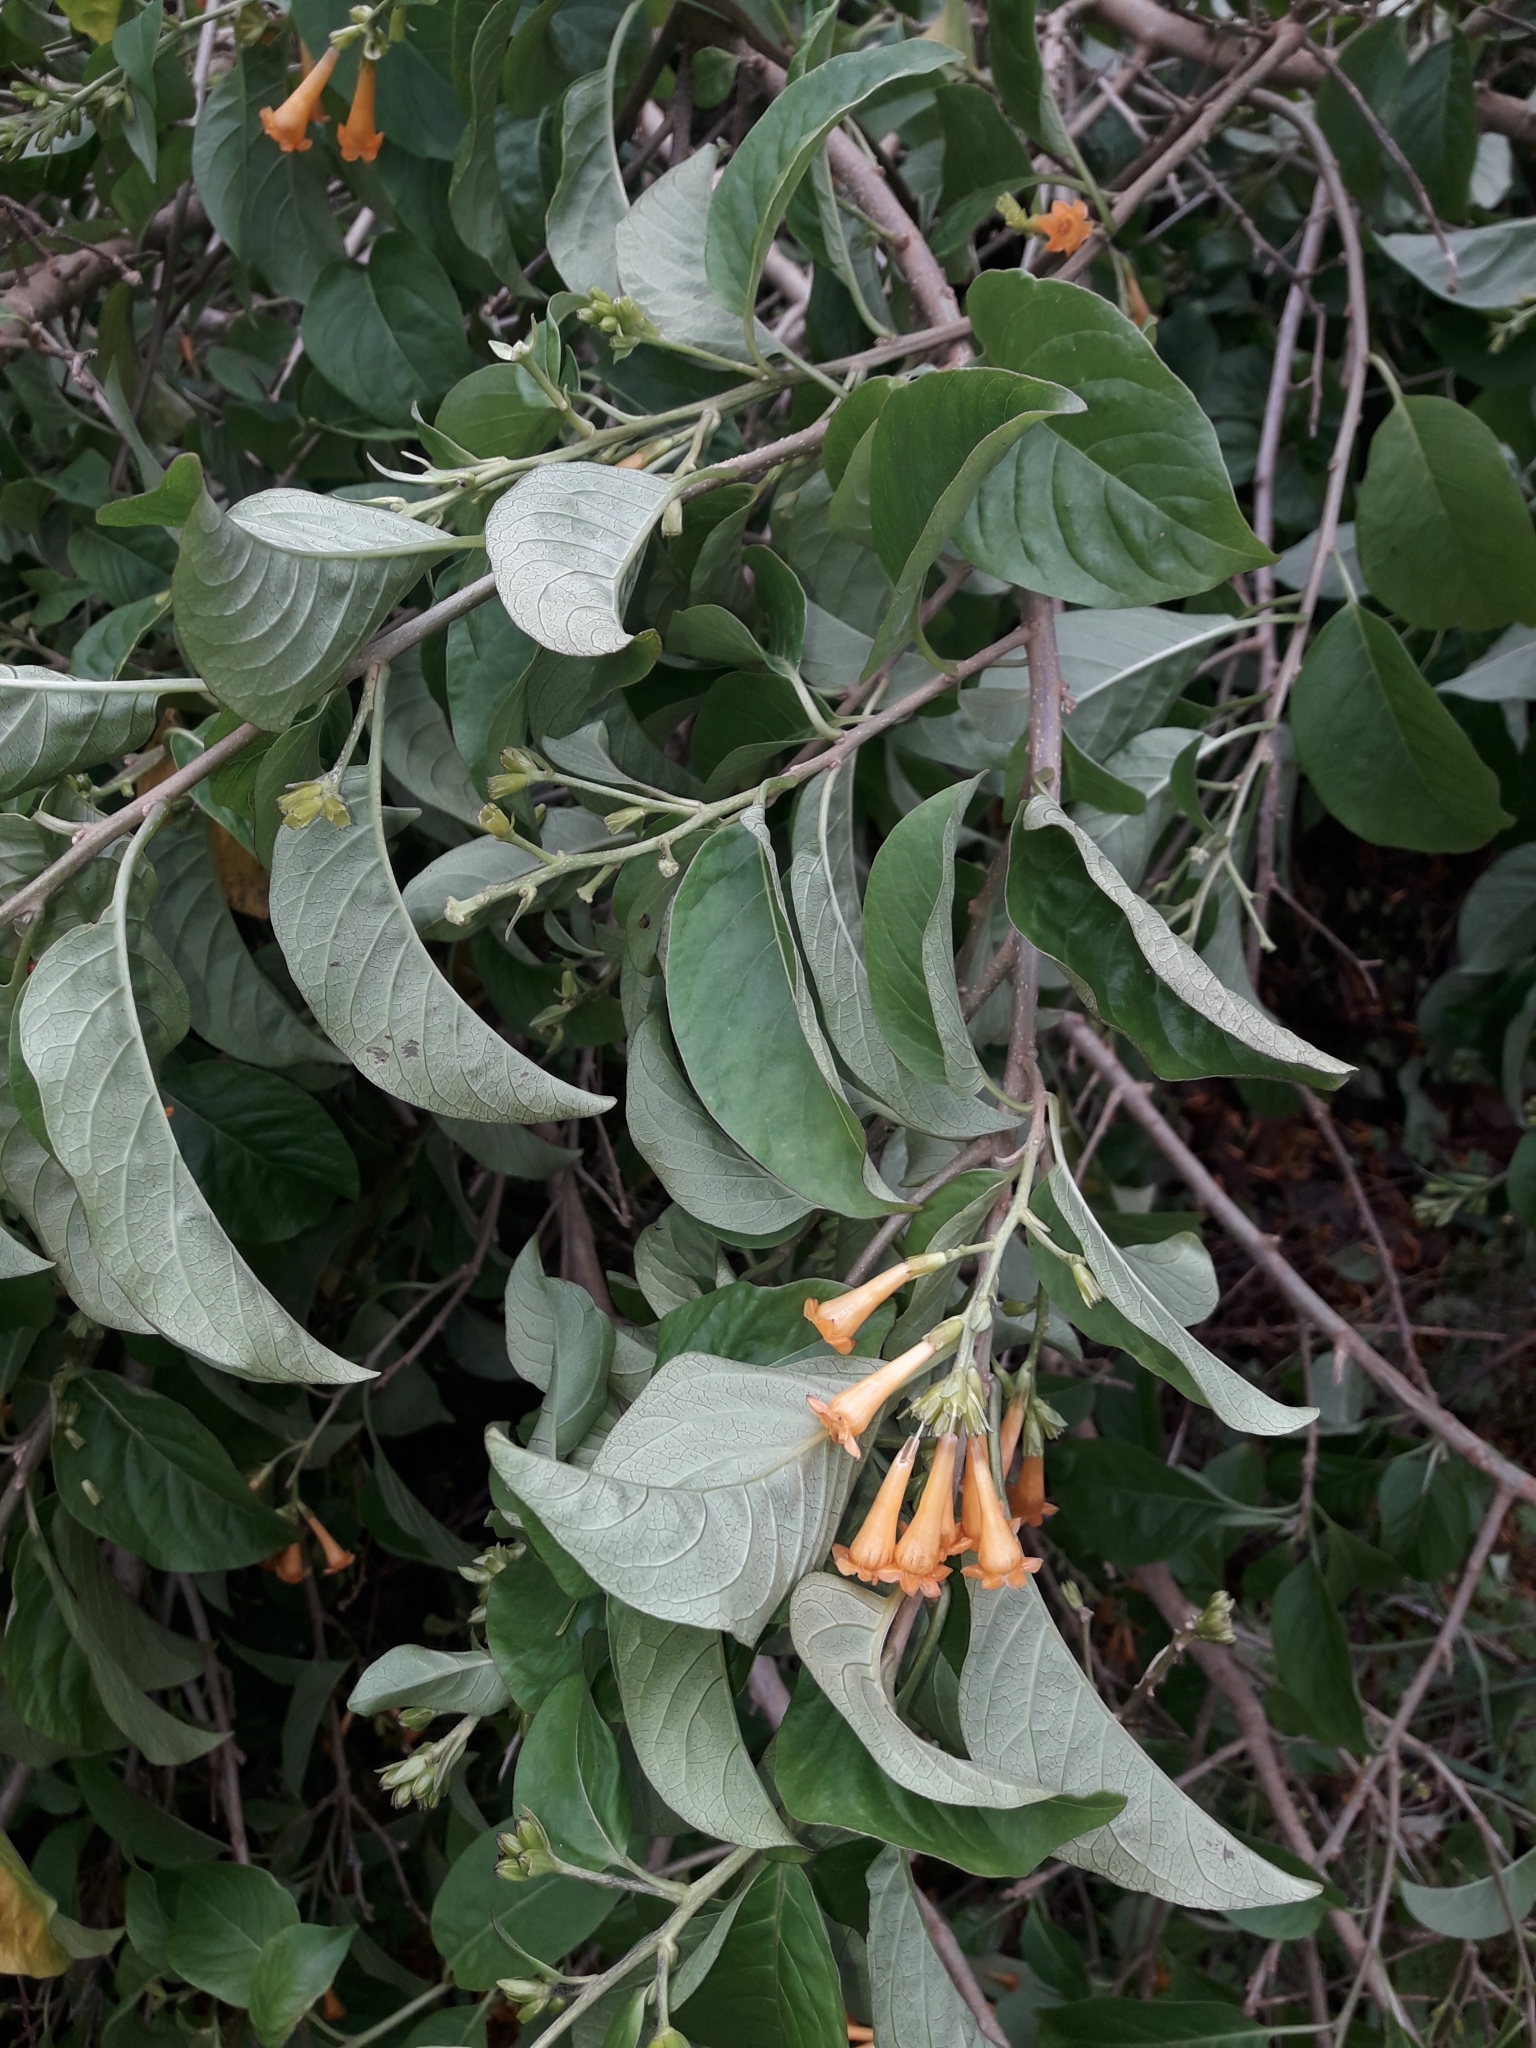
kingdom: Plantae
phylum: Tracheophyta
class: Magnoliopsida
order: Solanales
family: Solanaceae
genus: Cestrum
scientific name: Cestrum aurantiacum
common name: Orange cestrum
